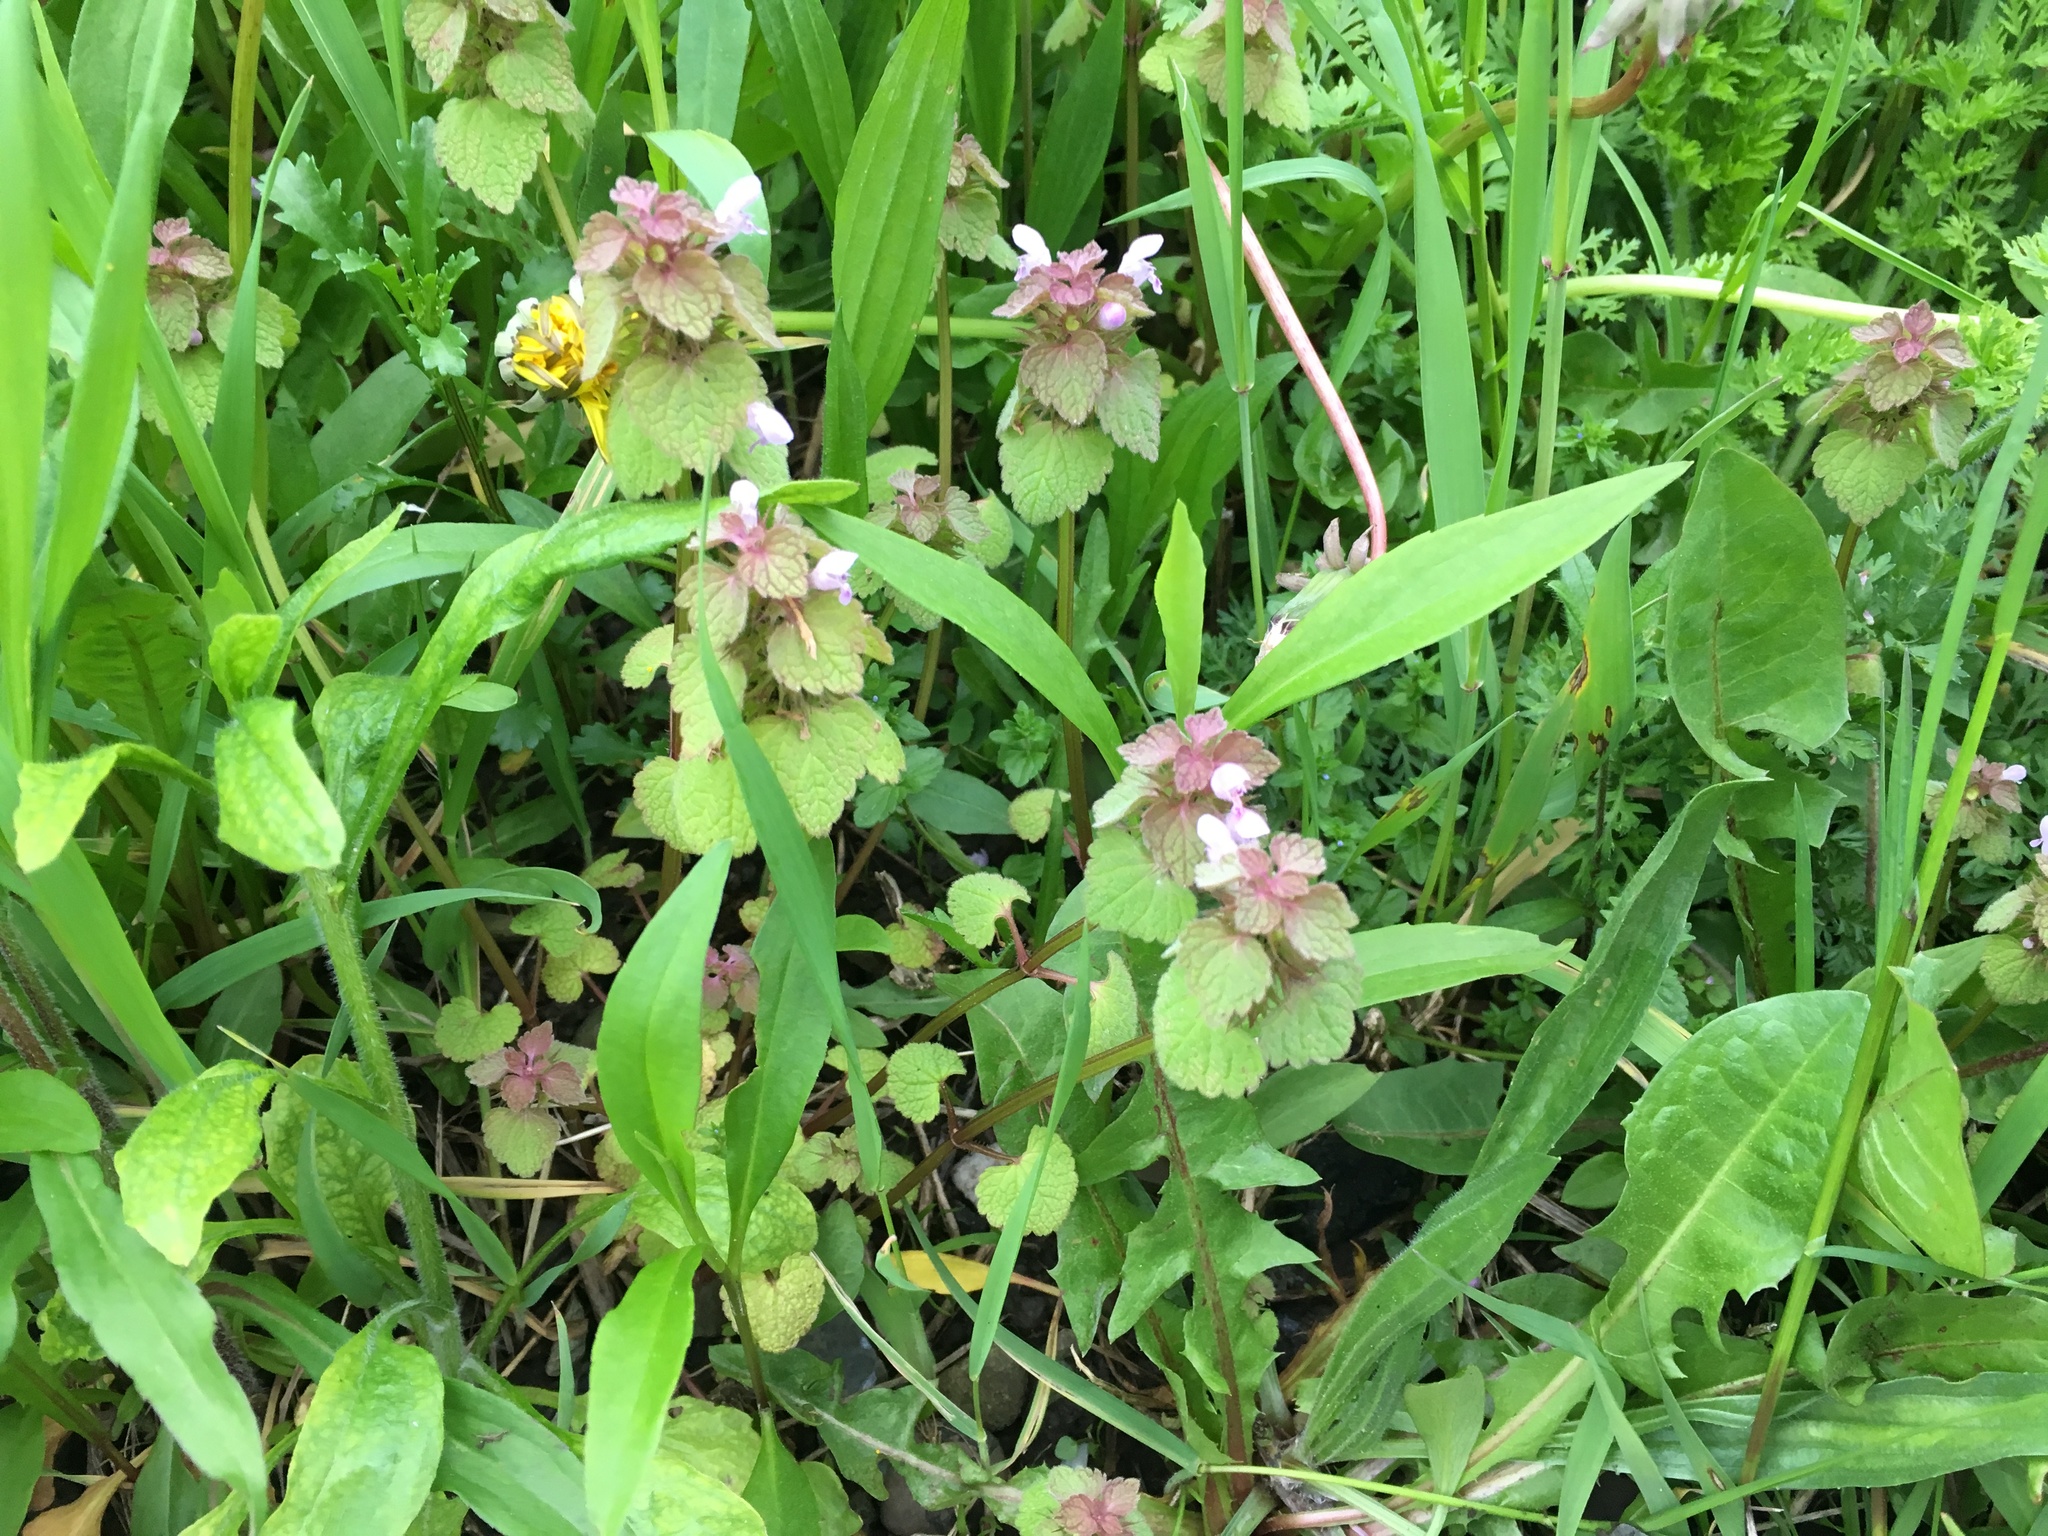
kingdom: Plantae
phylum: Tracheophyta
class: Magnoliopsida
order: Lamiales
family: Lamiaceae
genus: Lamium
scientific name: Lamium purpureum
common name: Red dead-nettle
